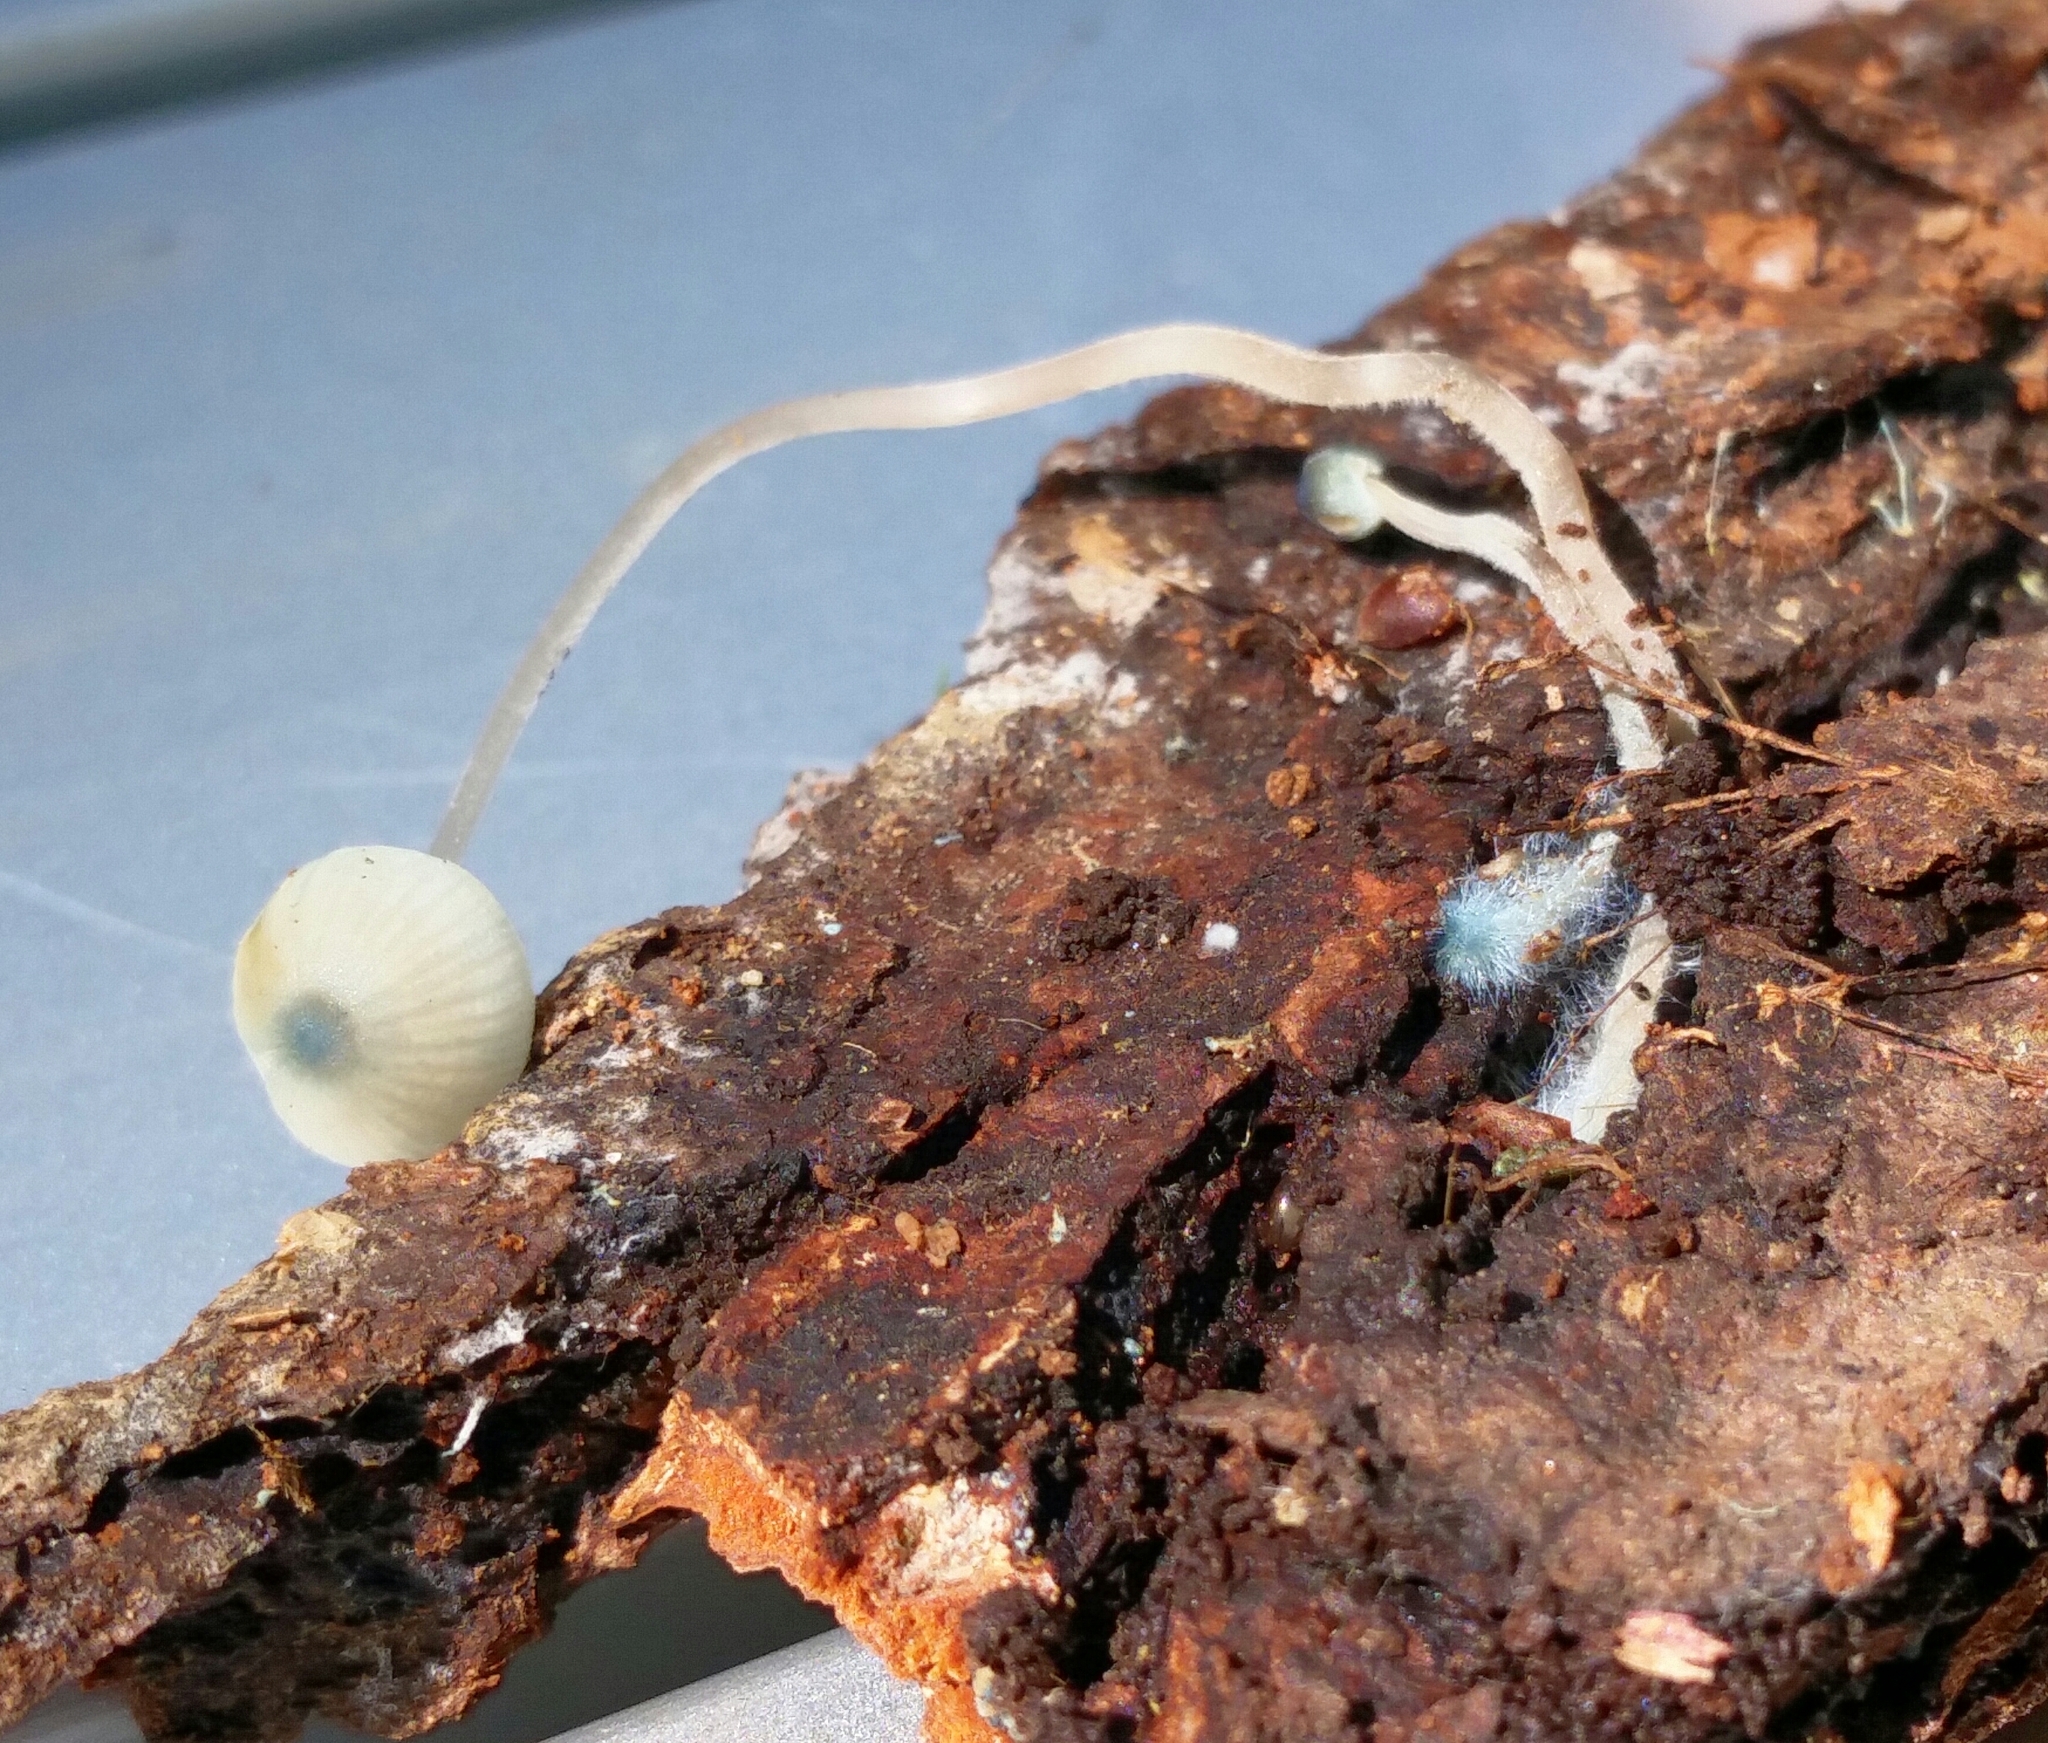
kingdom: Fungi
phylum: Basidiomycota
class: Agaricomycetes
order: Agaricales
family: Mycenaceae
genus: Mycena
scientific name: Mycena subcaerulea
